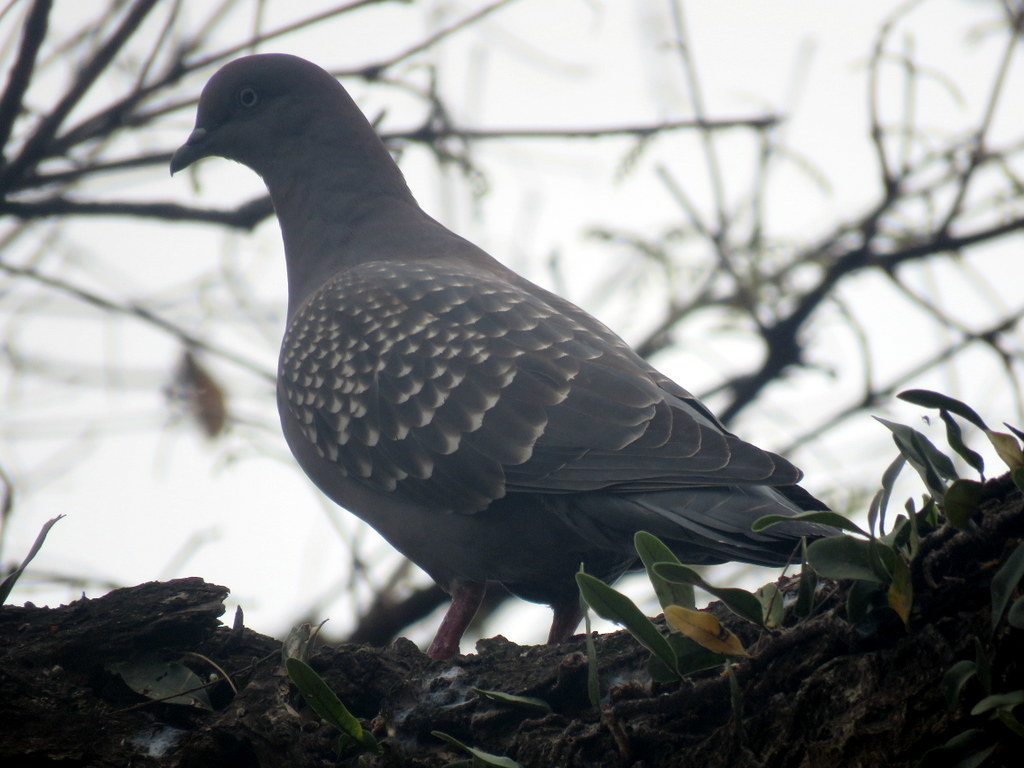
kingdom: Animalia
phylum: Chordata
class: Aves
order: Columbiformes
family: Columbidae
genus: Patagioenas
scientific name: Patagioenas maculosa
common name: Spot-winged pigeon
